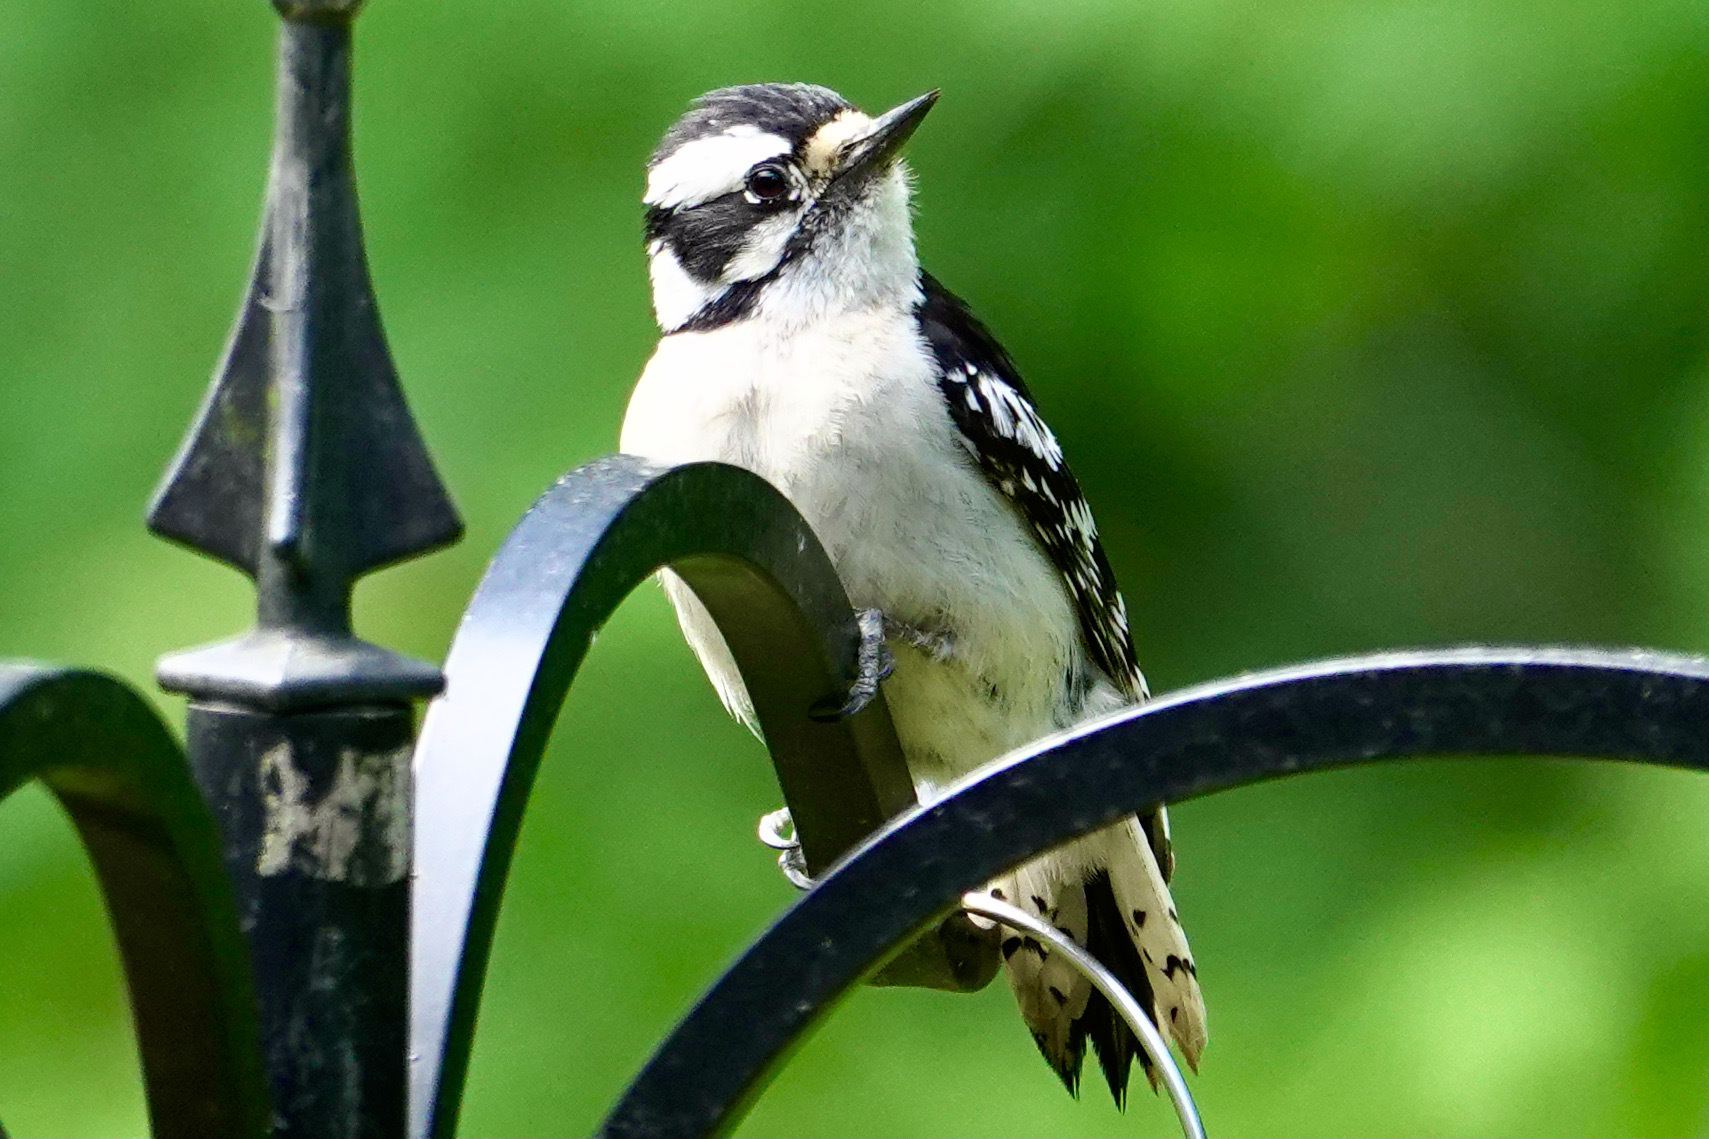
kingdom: Animalia
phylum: Chordata
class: Aves
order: Piciformes
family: Picidae
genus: Dryobates
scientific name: Dryobates pubescens
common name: Downy woodpecker
